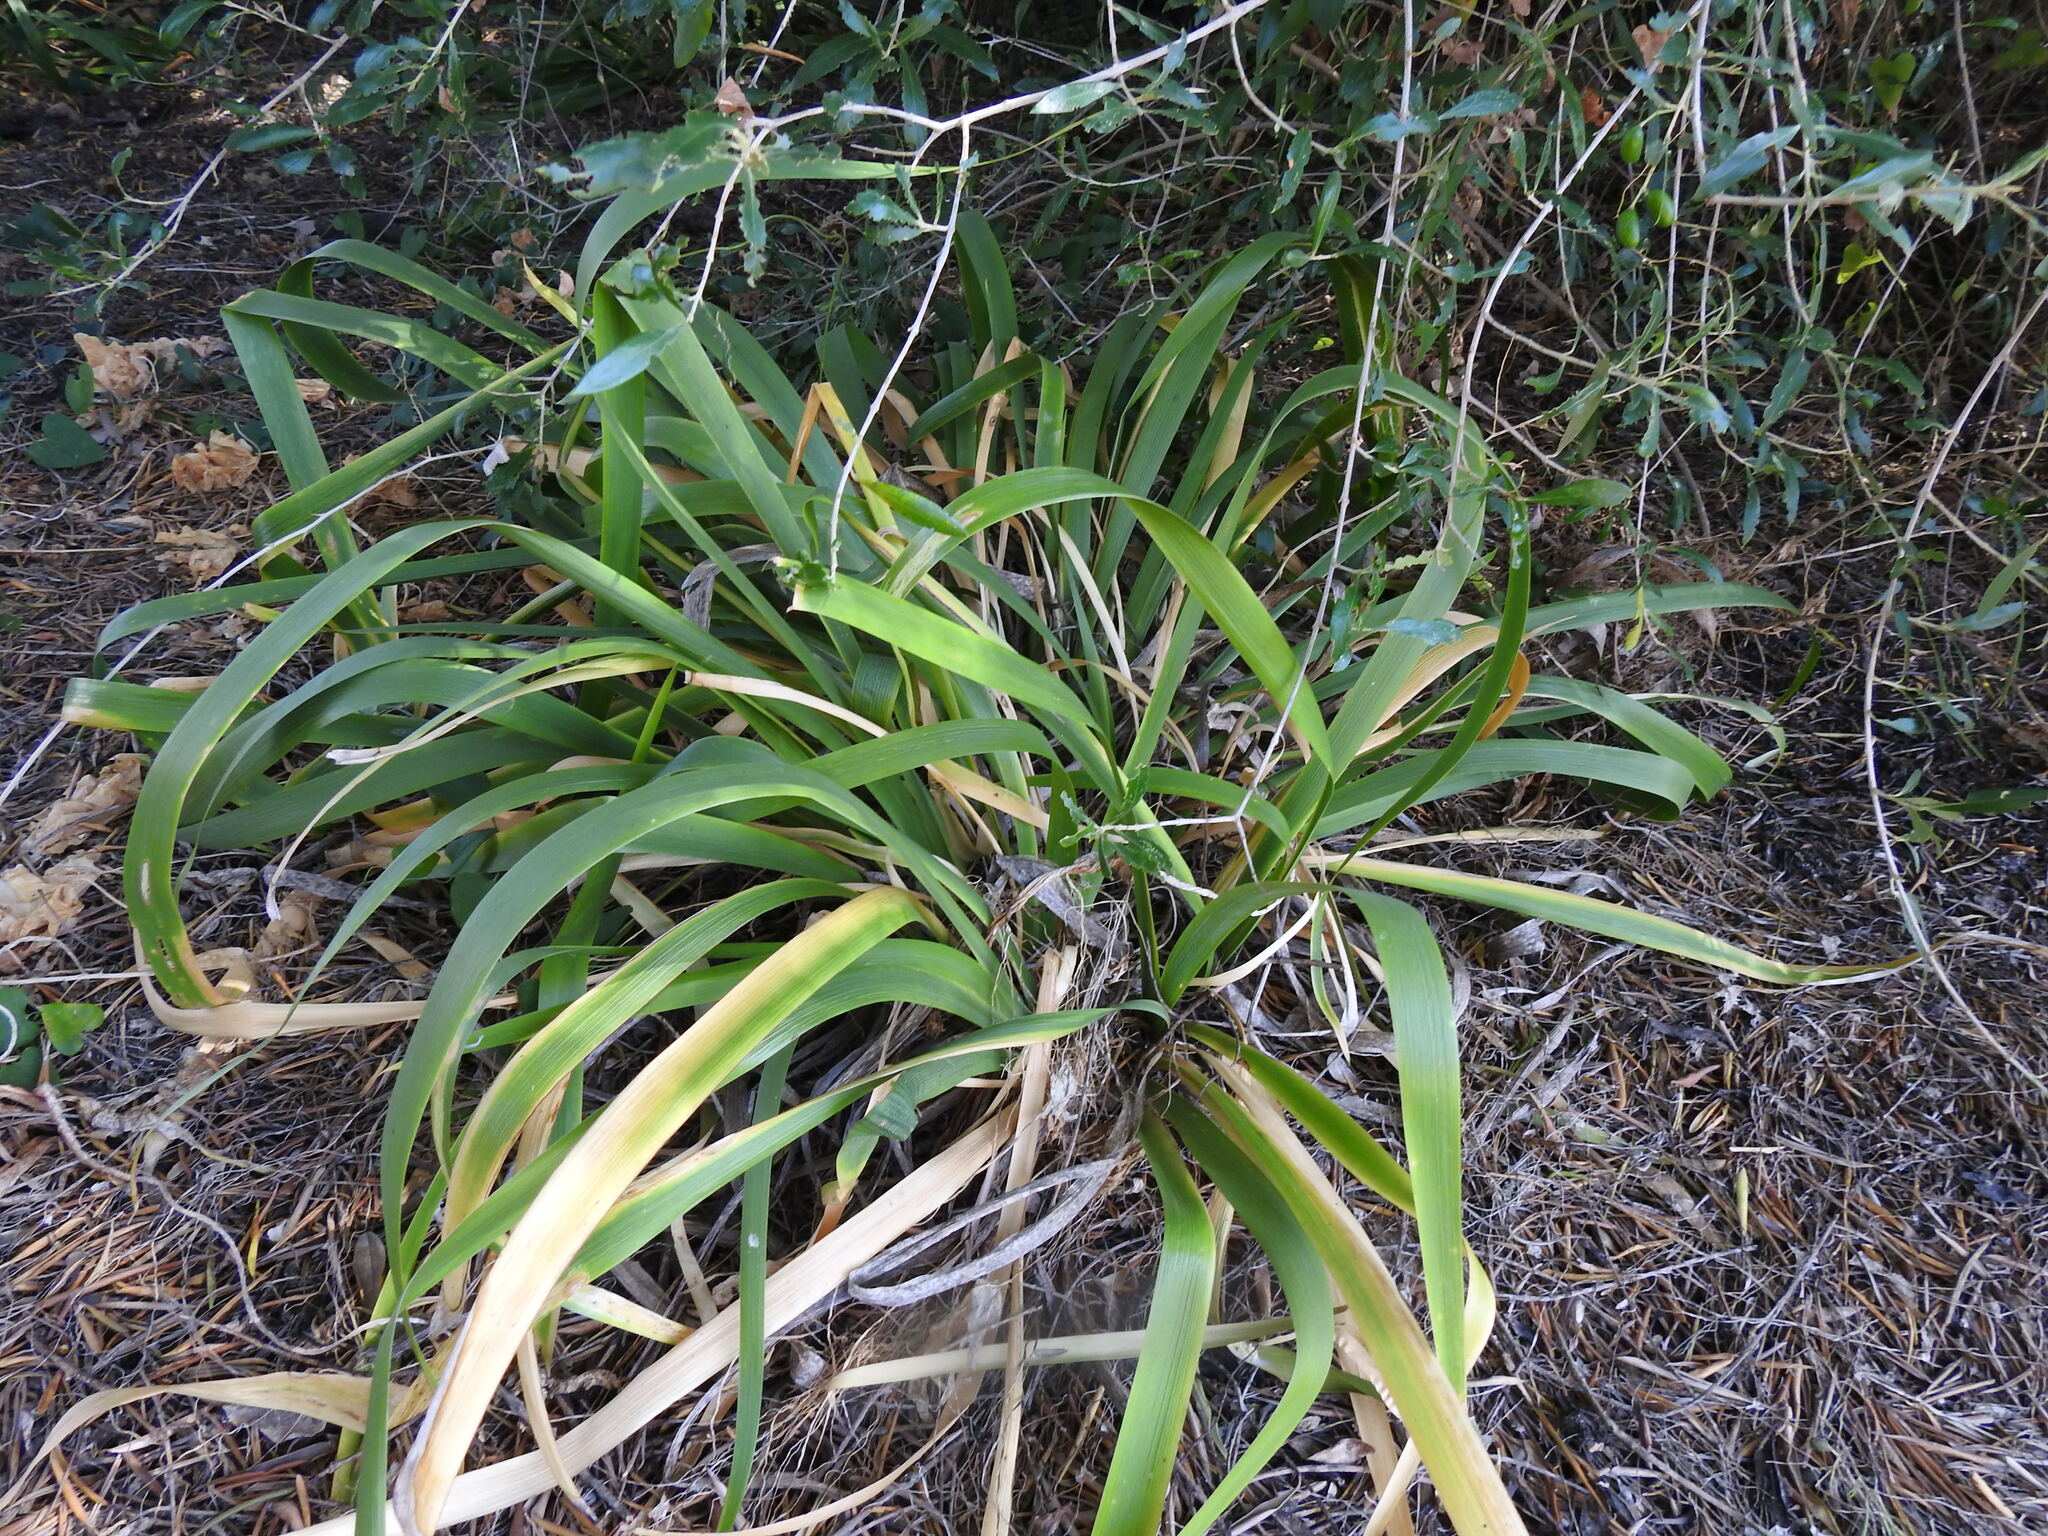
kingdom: Plantae
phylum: Tracheophyta
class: Liliopsida
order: Asparagales
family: Iridaceae
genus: Iris
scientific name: Iris foetidissima
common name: Stinking iris
